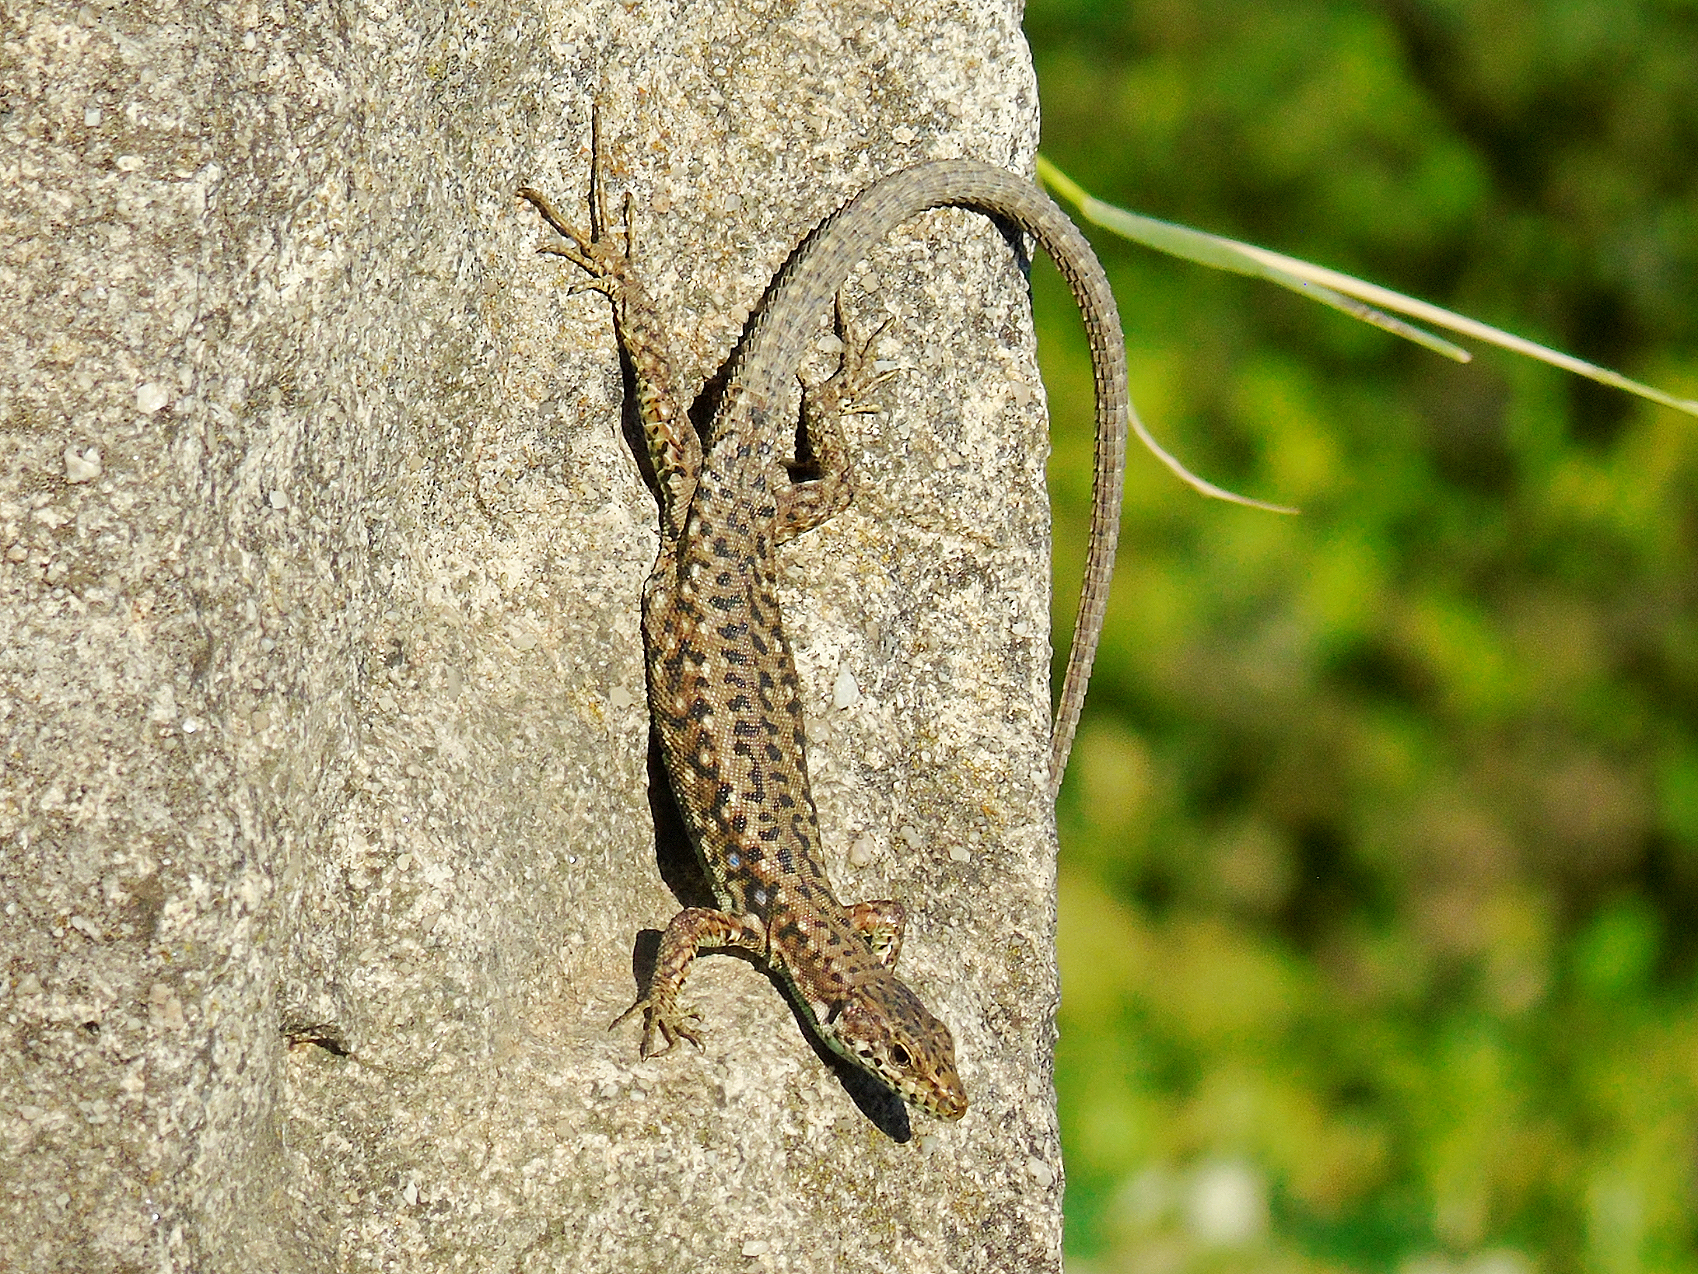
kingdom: Animalia
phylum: Chordata
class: Squamata
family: Lacertidae
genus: Darevskia
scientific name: Darevskia rudis
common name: Spiny-tailed lizard
